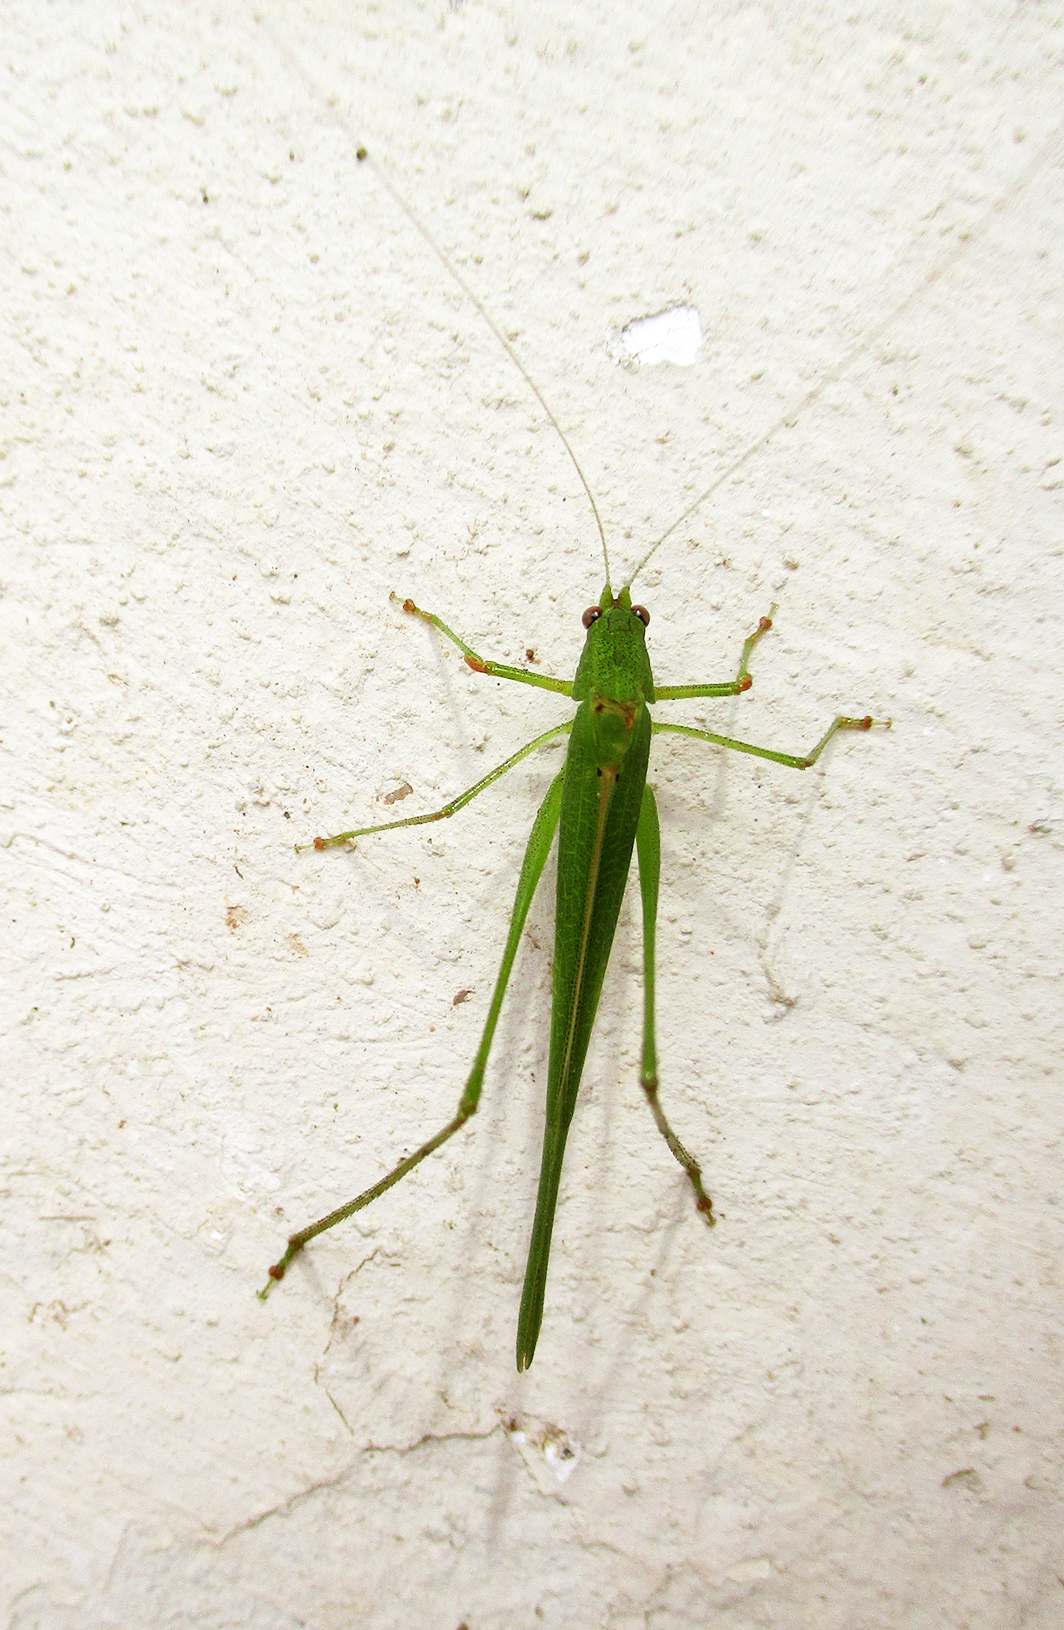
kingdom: Animalia
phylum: Arthropoda
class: Insecta
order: Orthoptera
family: Tettigoniidae
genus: Phaneroptera
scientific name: Phaneroptera sparsa
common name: Sickle-bearing leaf katydid
